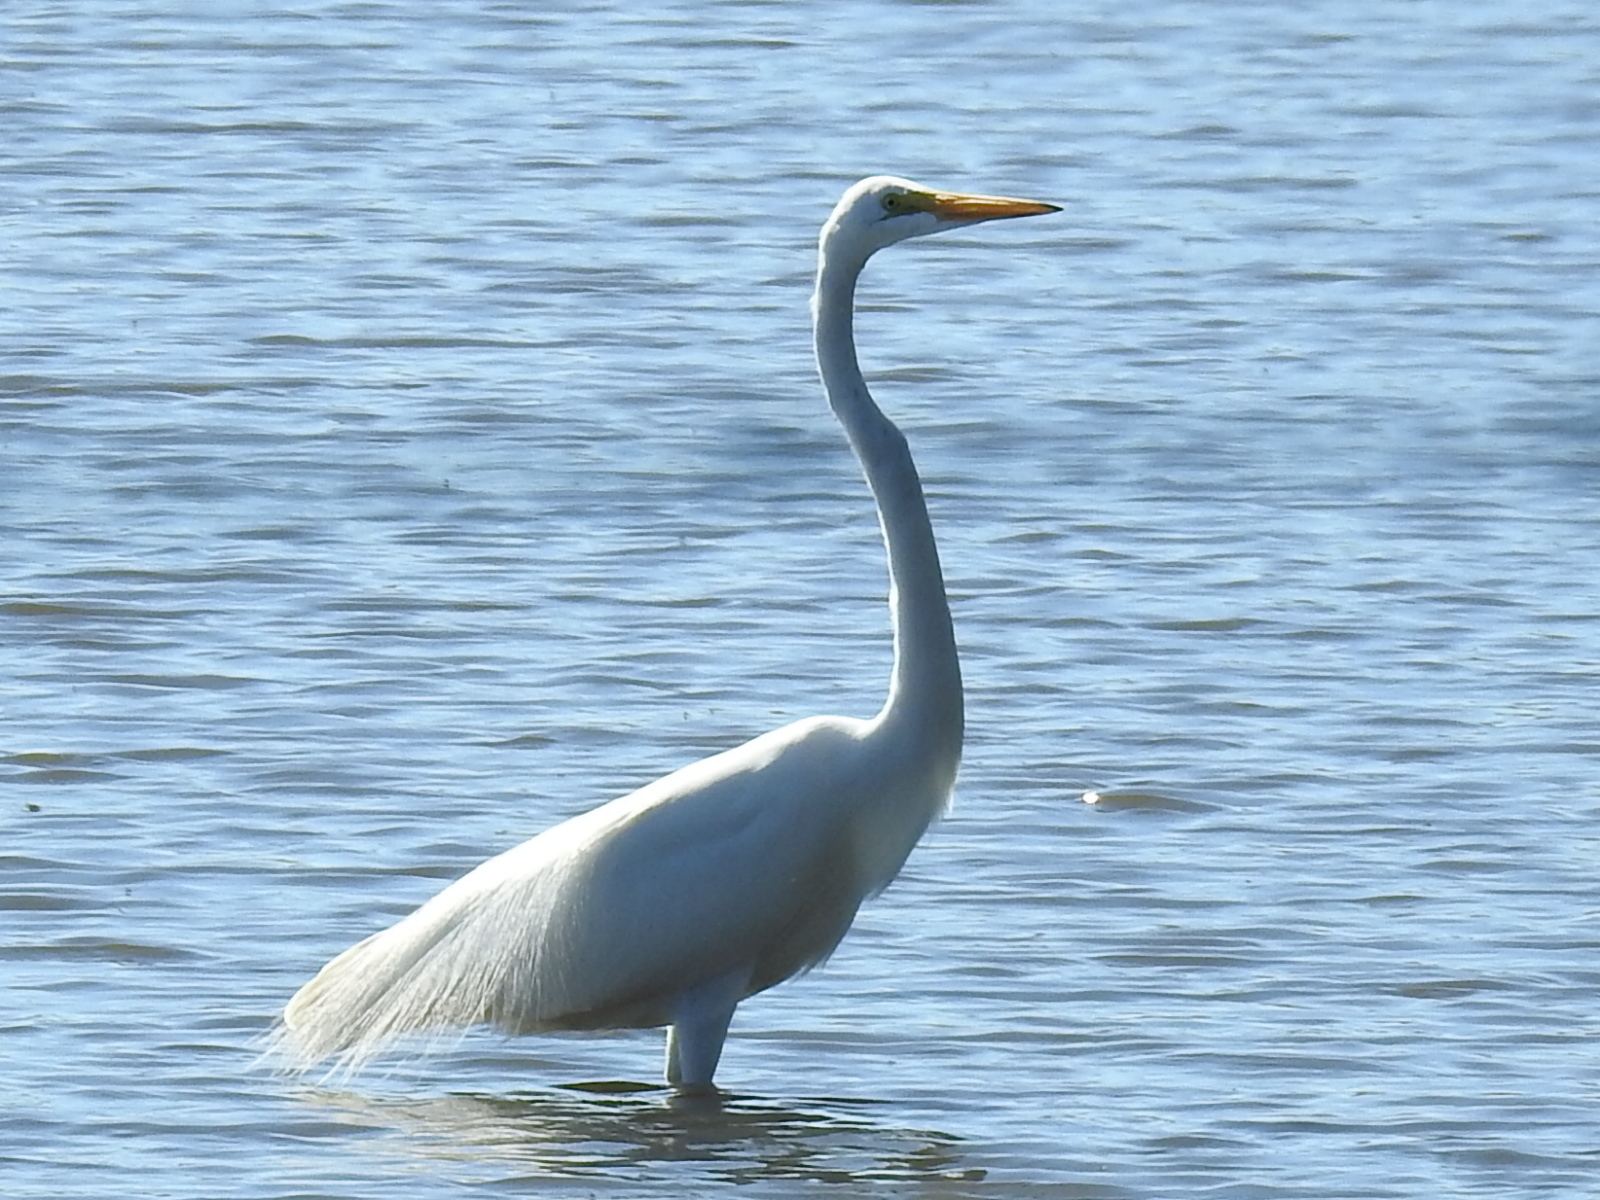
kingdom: Animalia
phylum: Chordata
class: Aves
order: Pelecaniformes
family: Ardeidae
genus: Ardea
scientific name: Ardea alba
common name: Great egret
